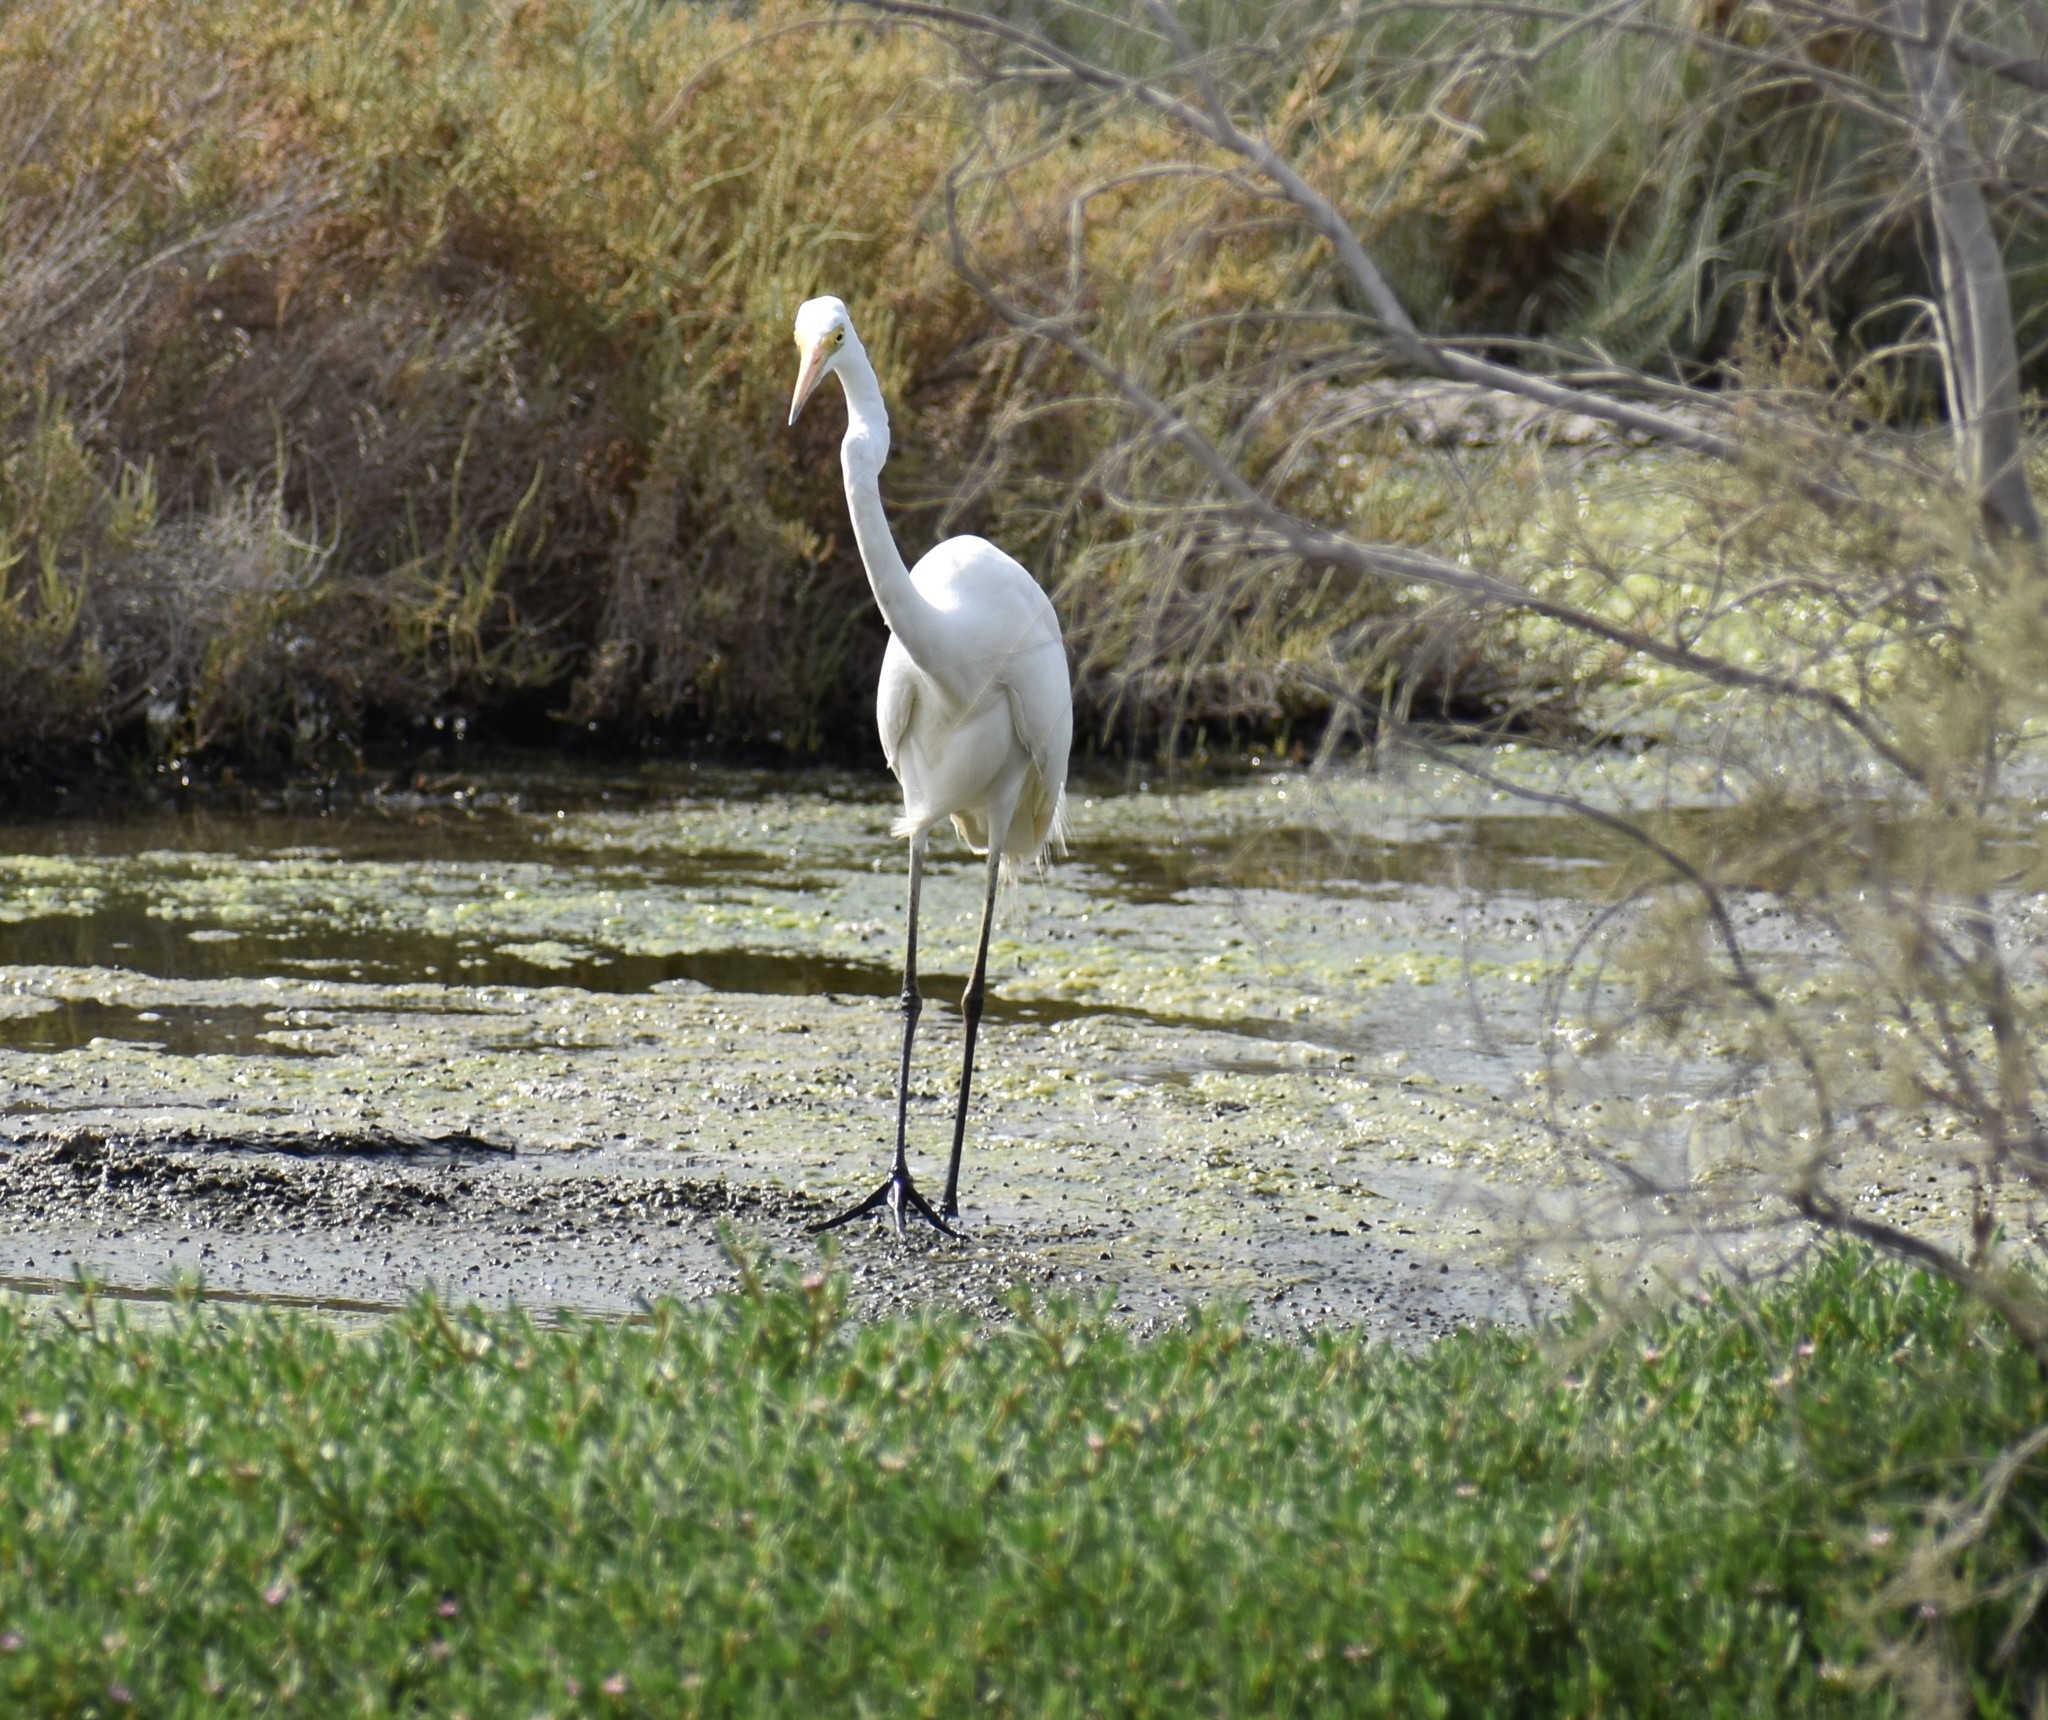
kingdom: Animalia
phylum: Chordata
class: Aves
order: Pelecaniformes
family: Ardeidae
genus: Ardea
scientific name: Ardea alba
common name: Great egret
